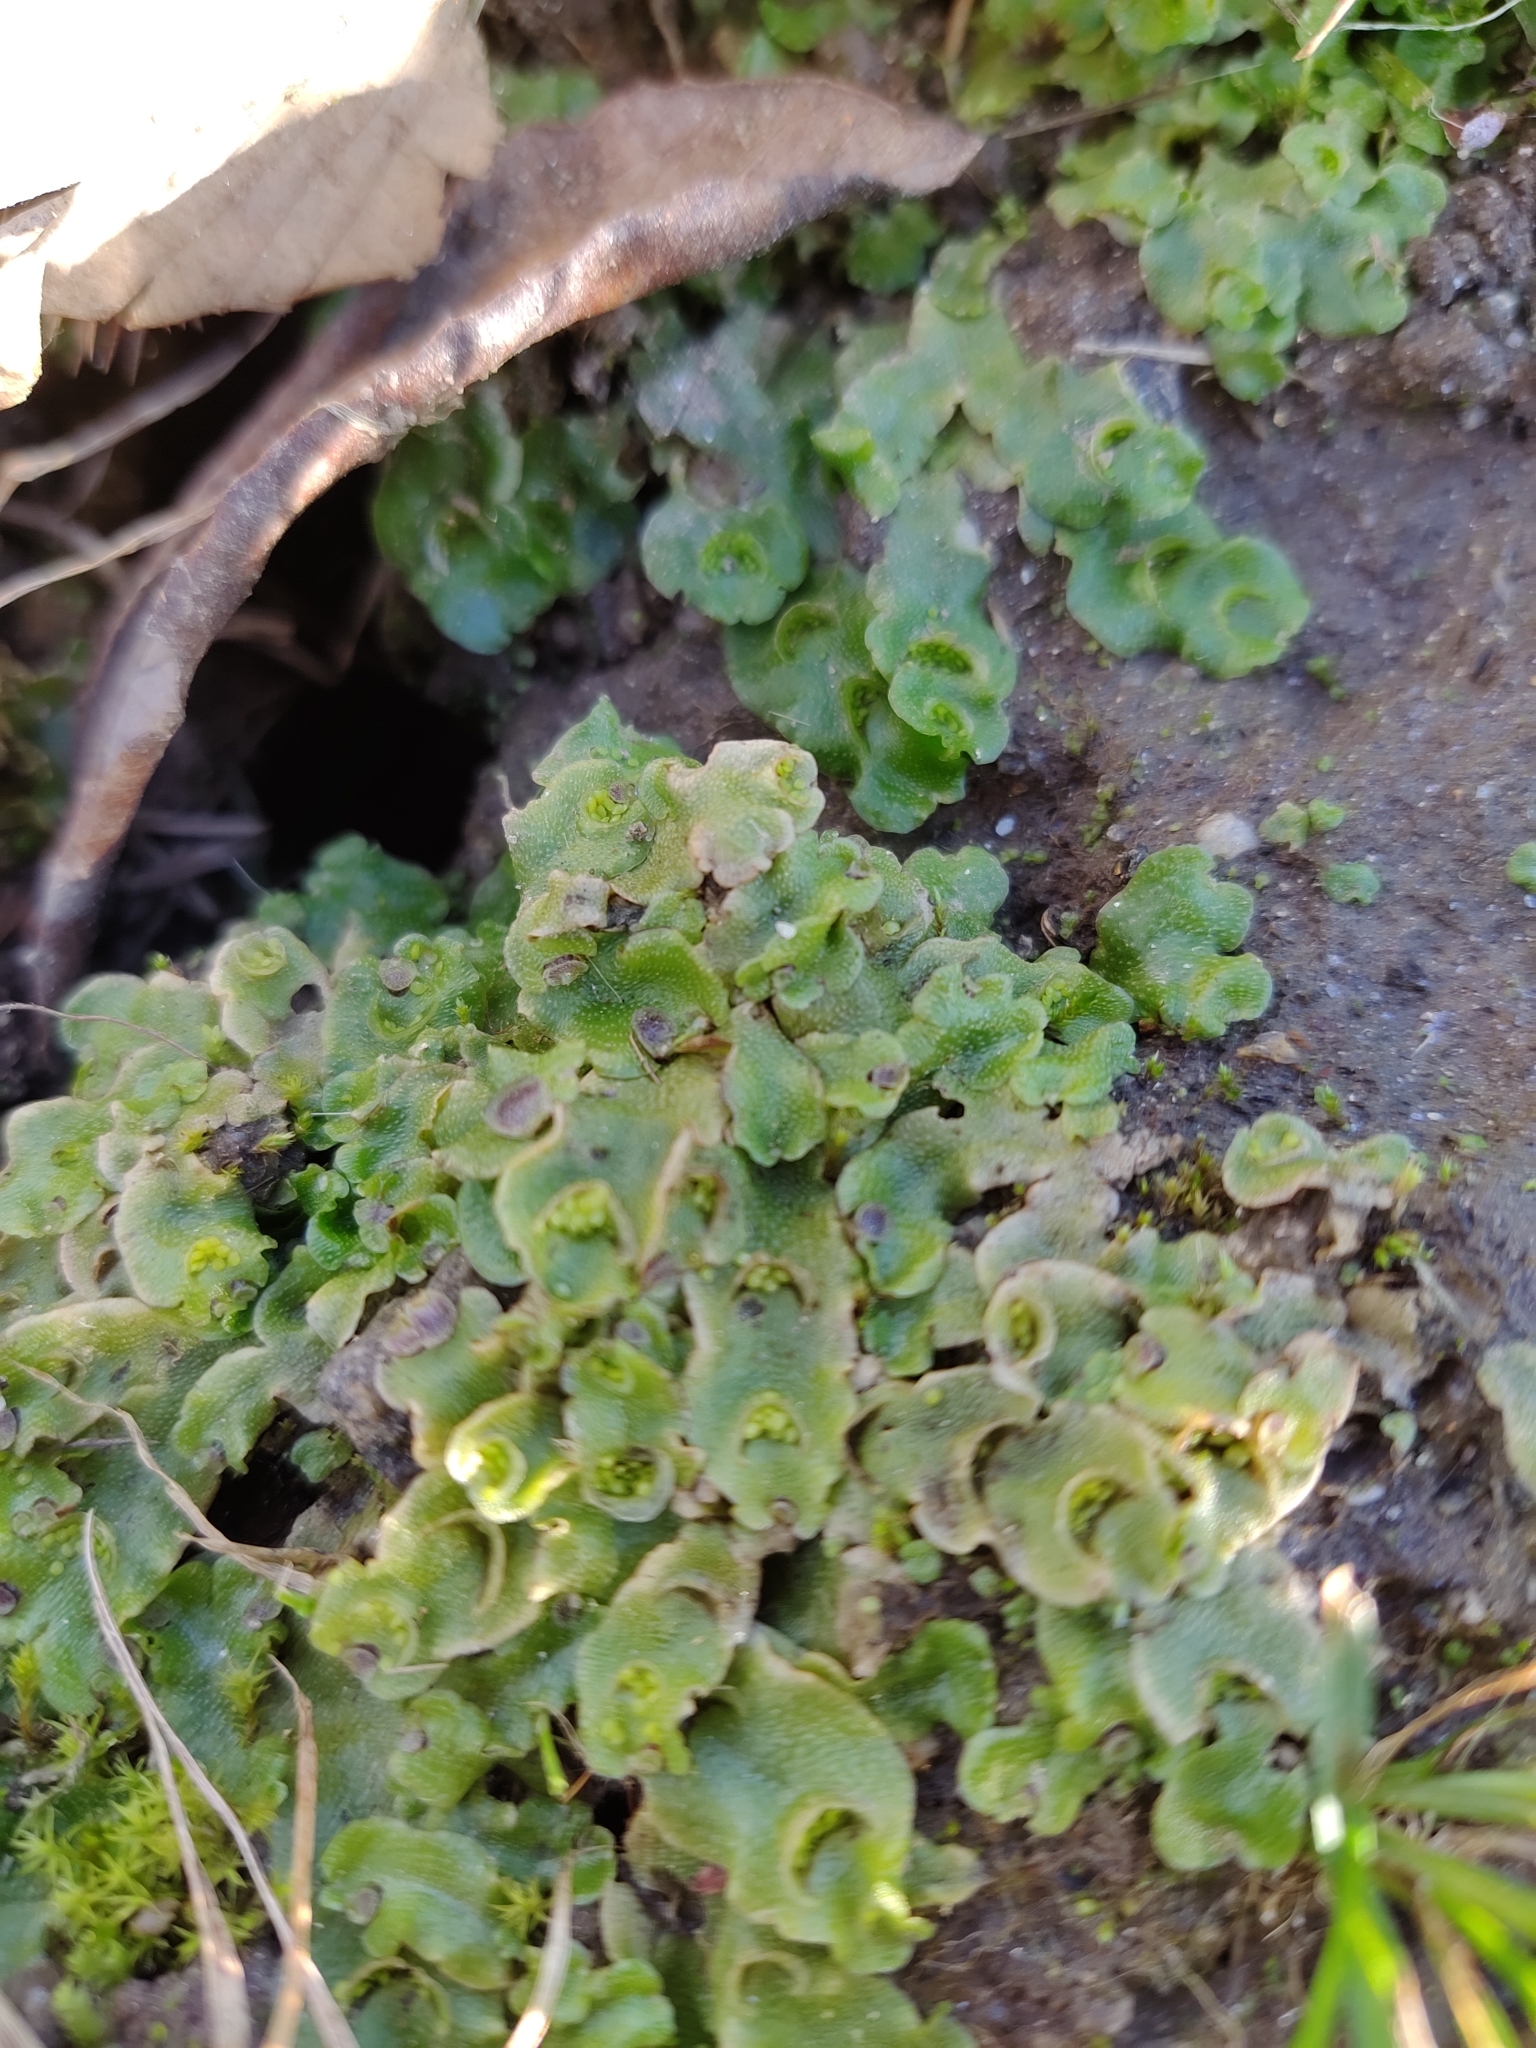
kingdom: Plantae
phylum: Marchantiophyta
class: Marchantiopsida
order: Lunulariales
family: Lunulariaceae
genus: Lunularia
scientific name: Lunularia cruciata
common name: Crescent-cup liverwort
